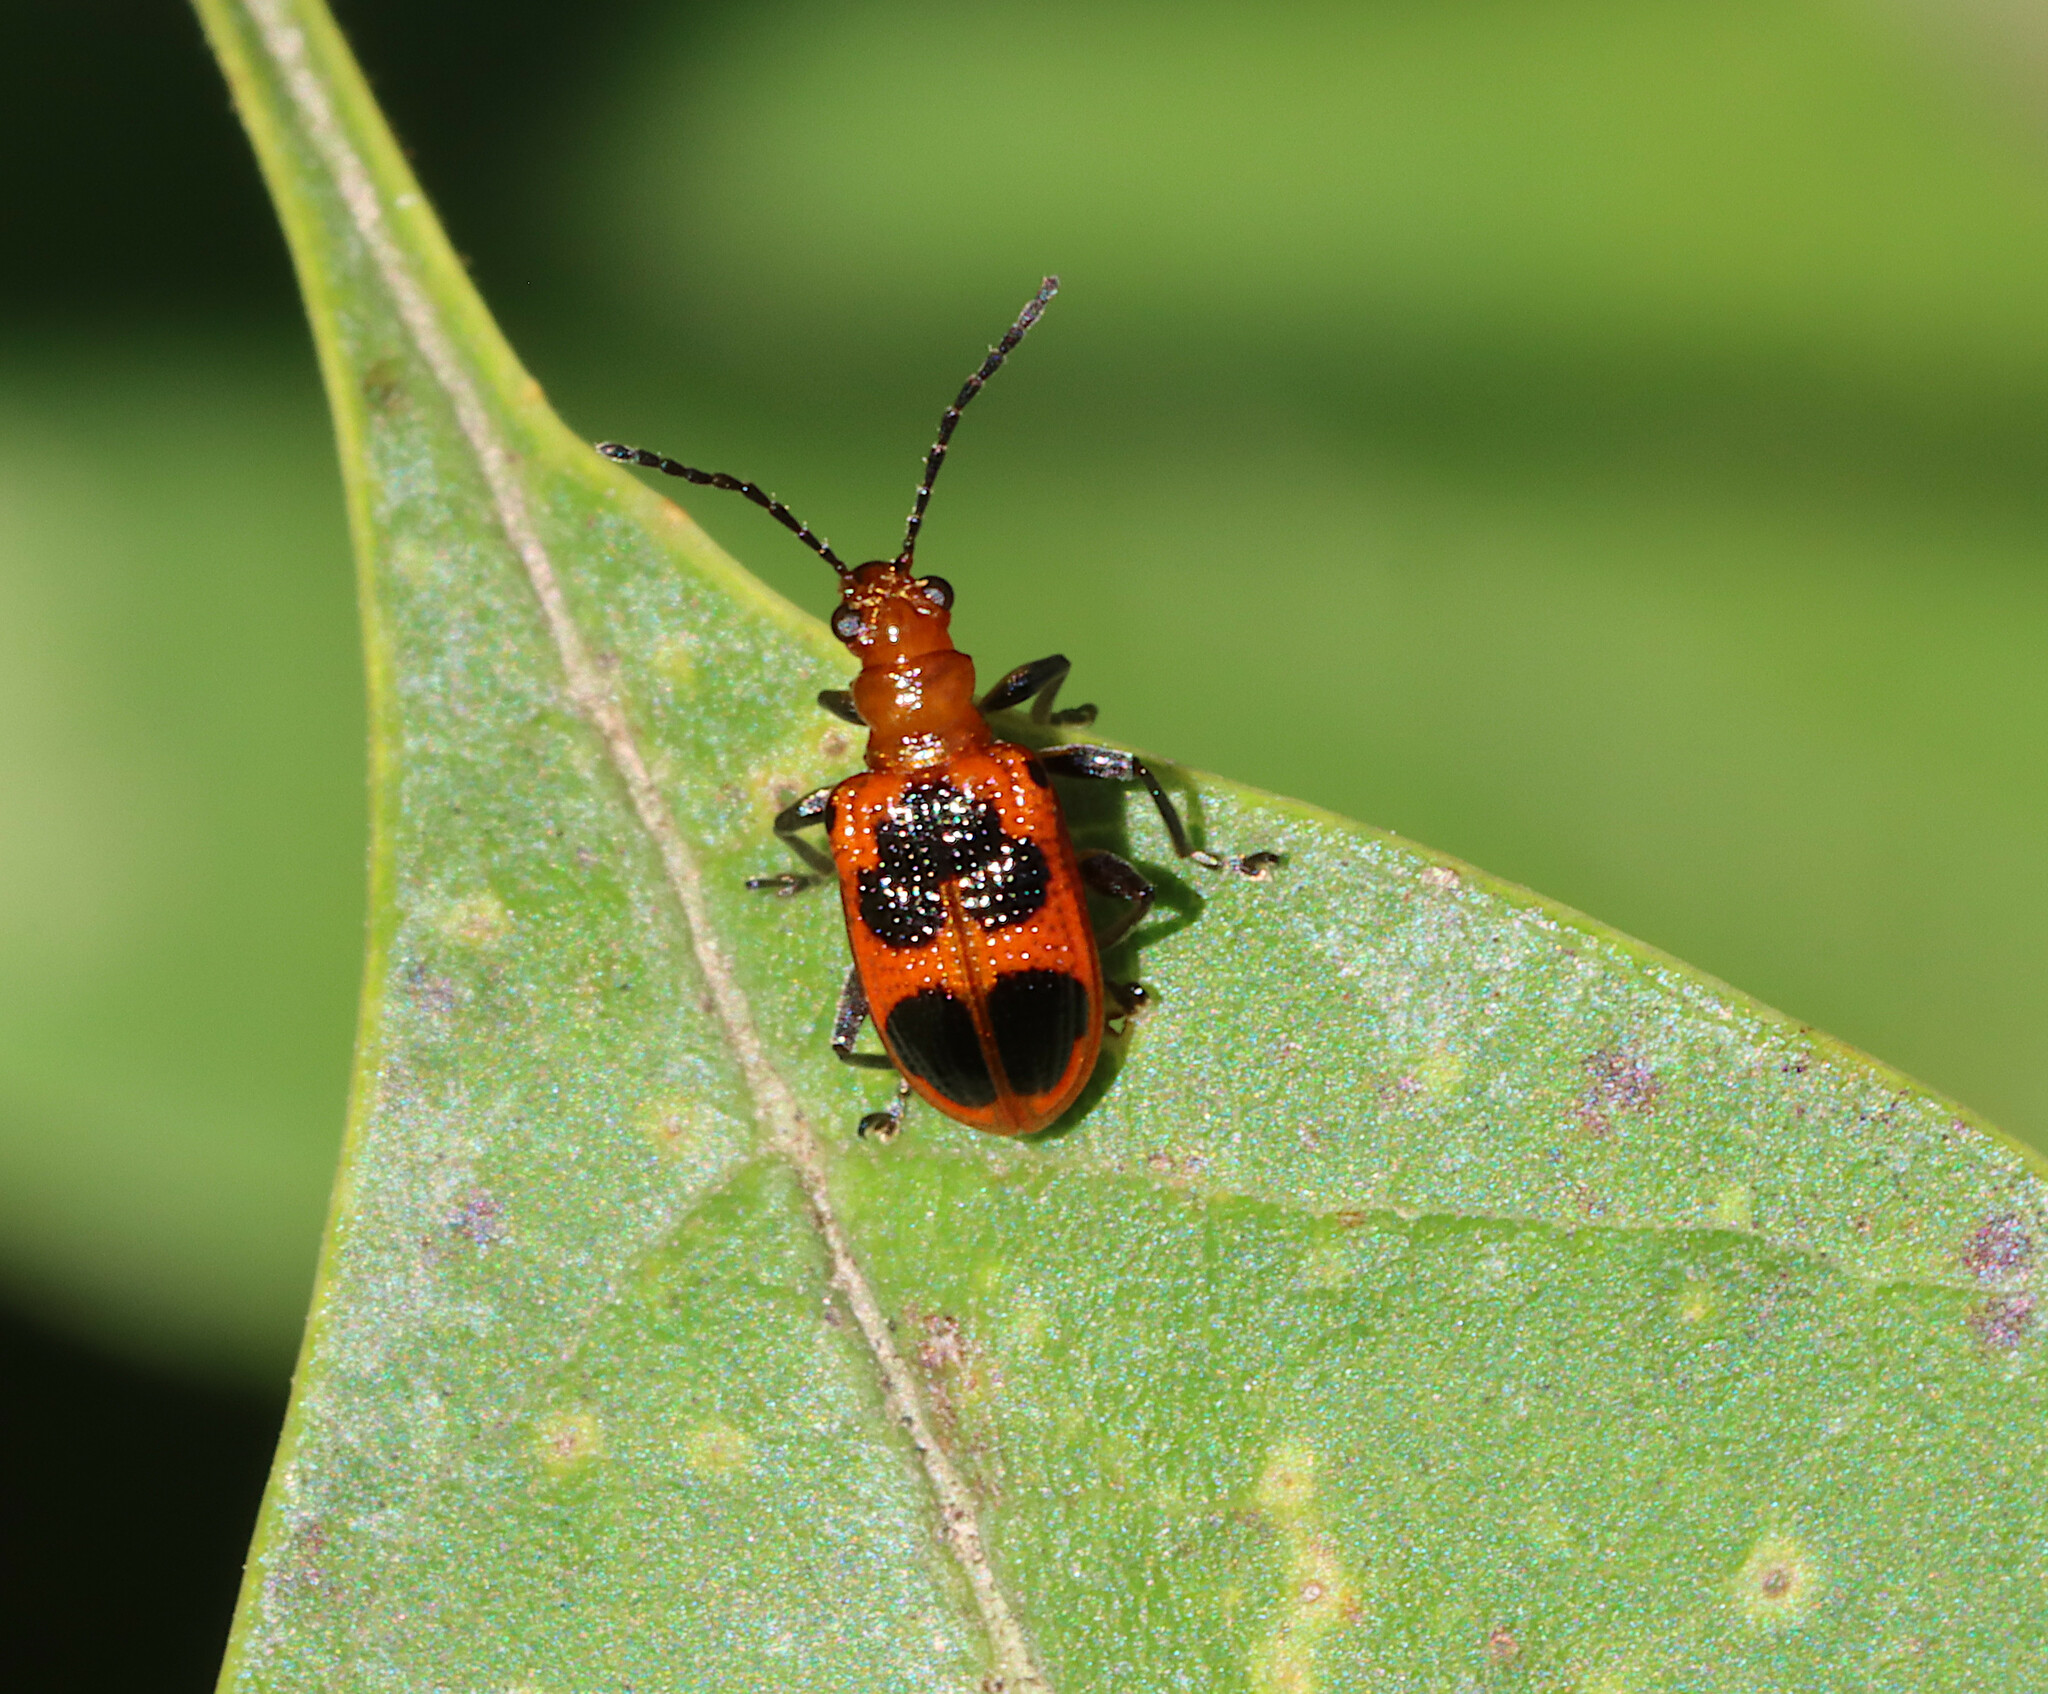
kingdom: Animalia
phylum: Arthropoda
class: Insecta
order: Coleoptera
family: Chrysomelidae
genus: Neolema
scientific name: Neolema cordata
